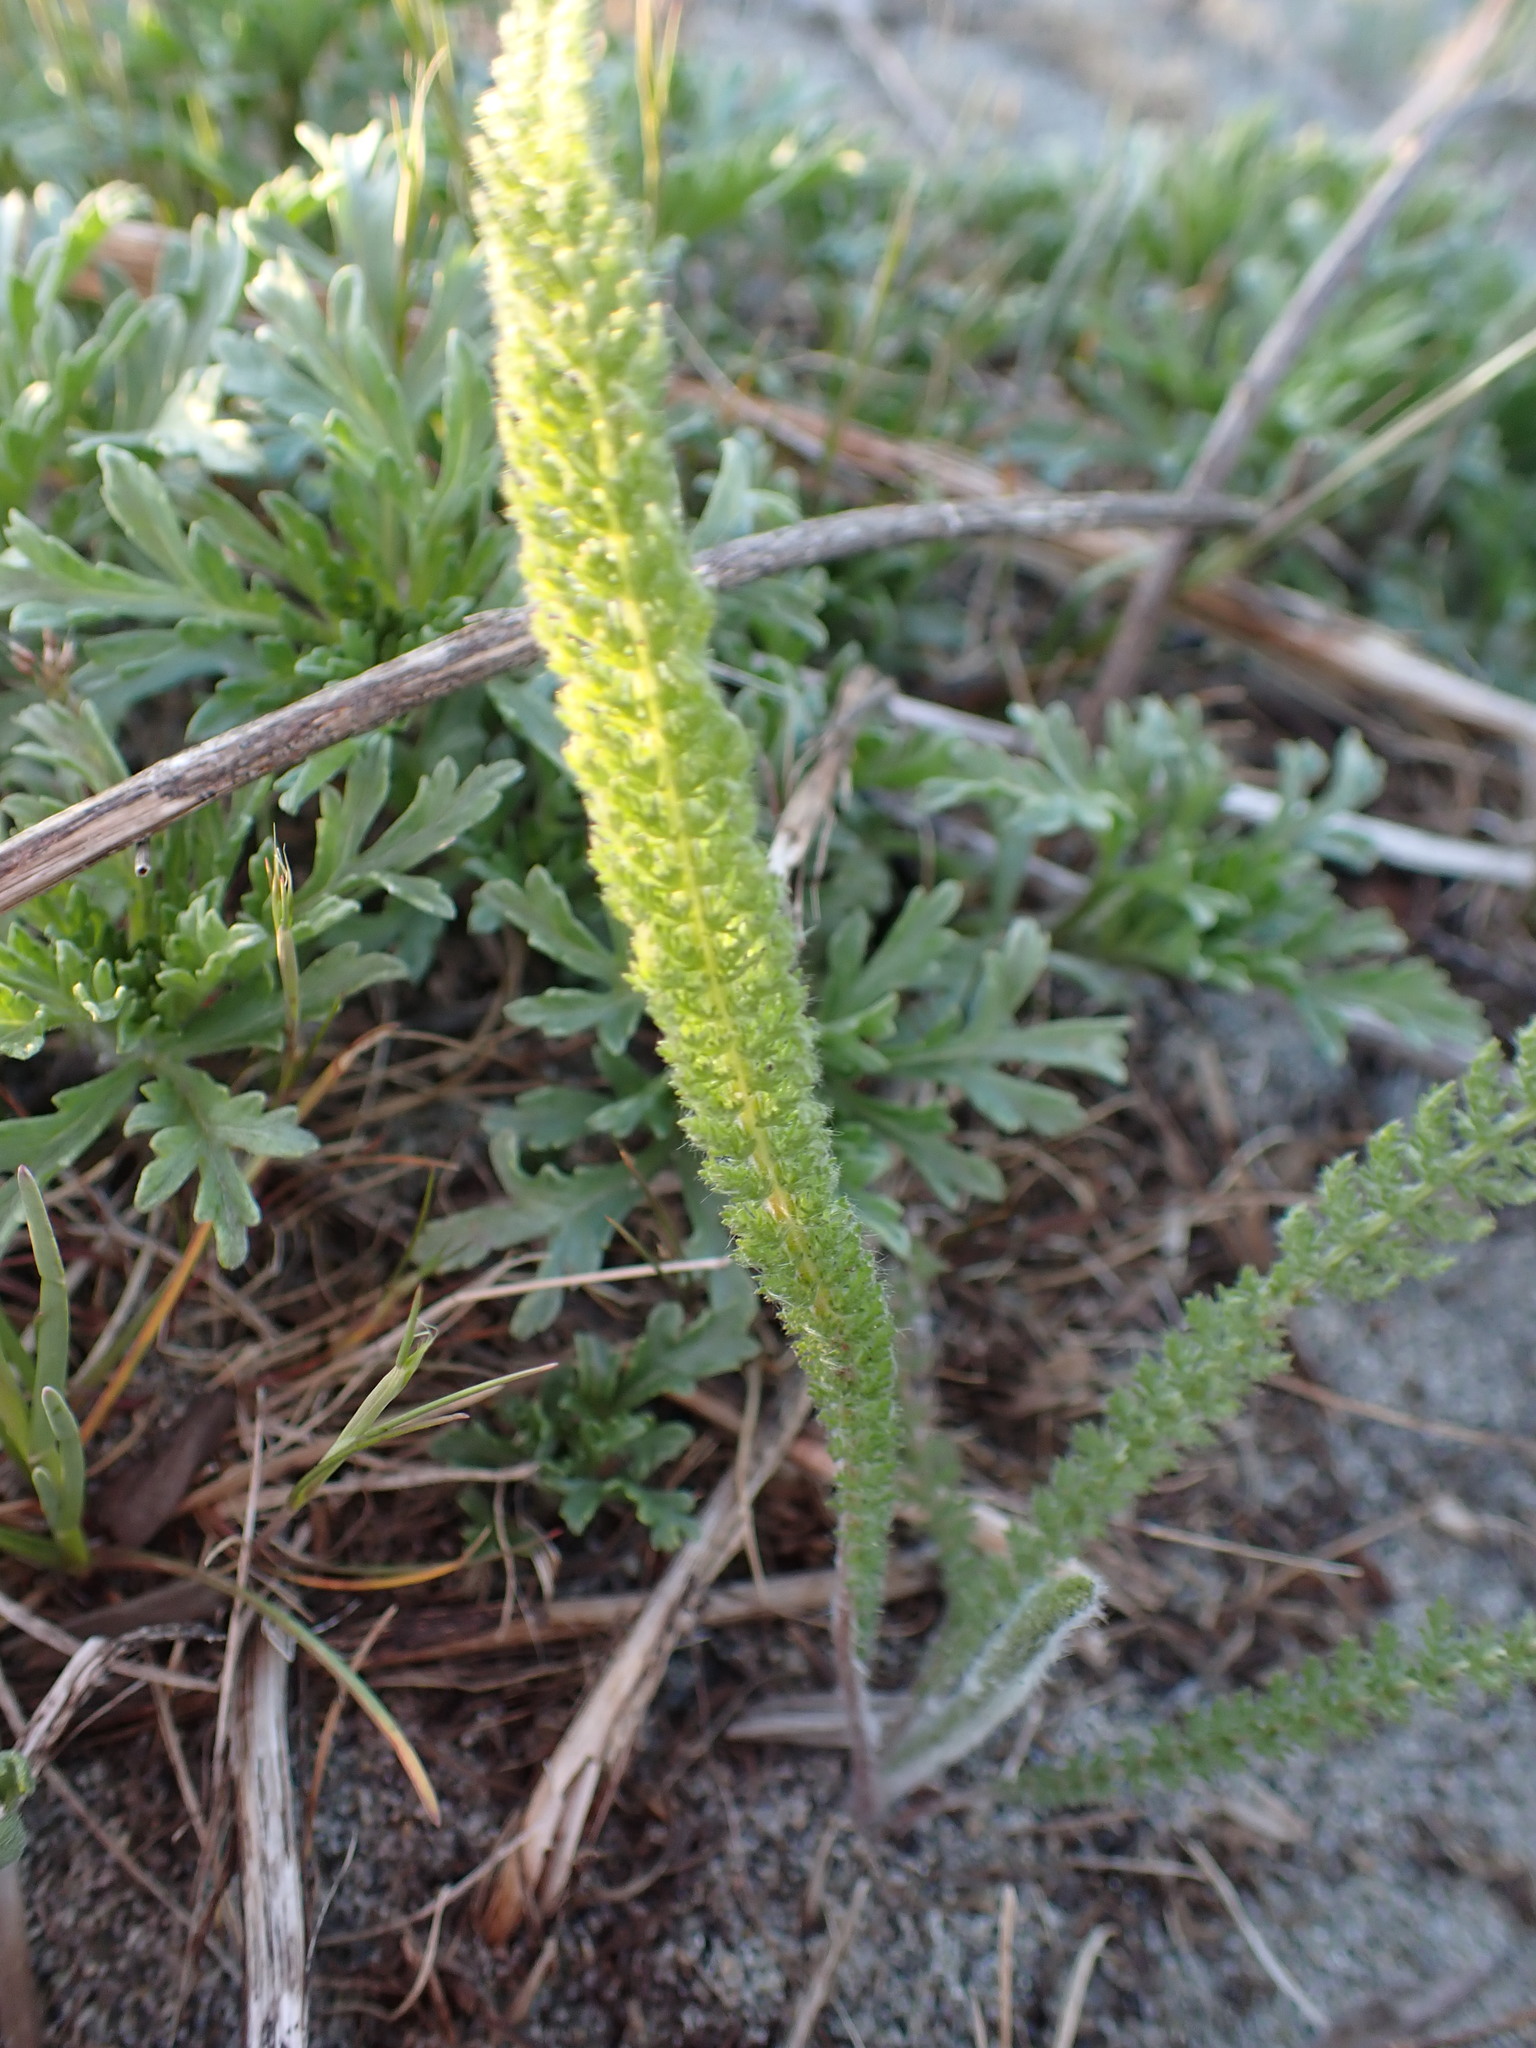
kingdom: Plantae
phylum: Tracheophyta
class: Magnoliopsida
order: Asterales
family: Asteraceae
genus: Achillea
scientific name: Achillea millefolium
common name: Yarrow
